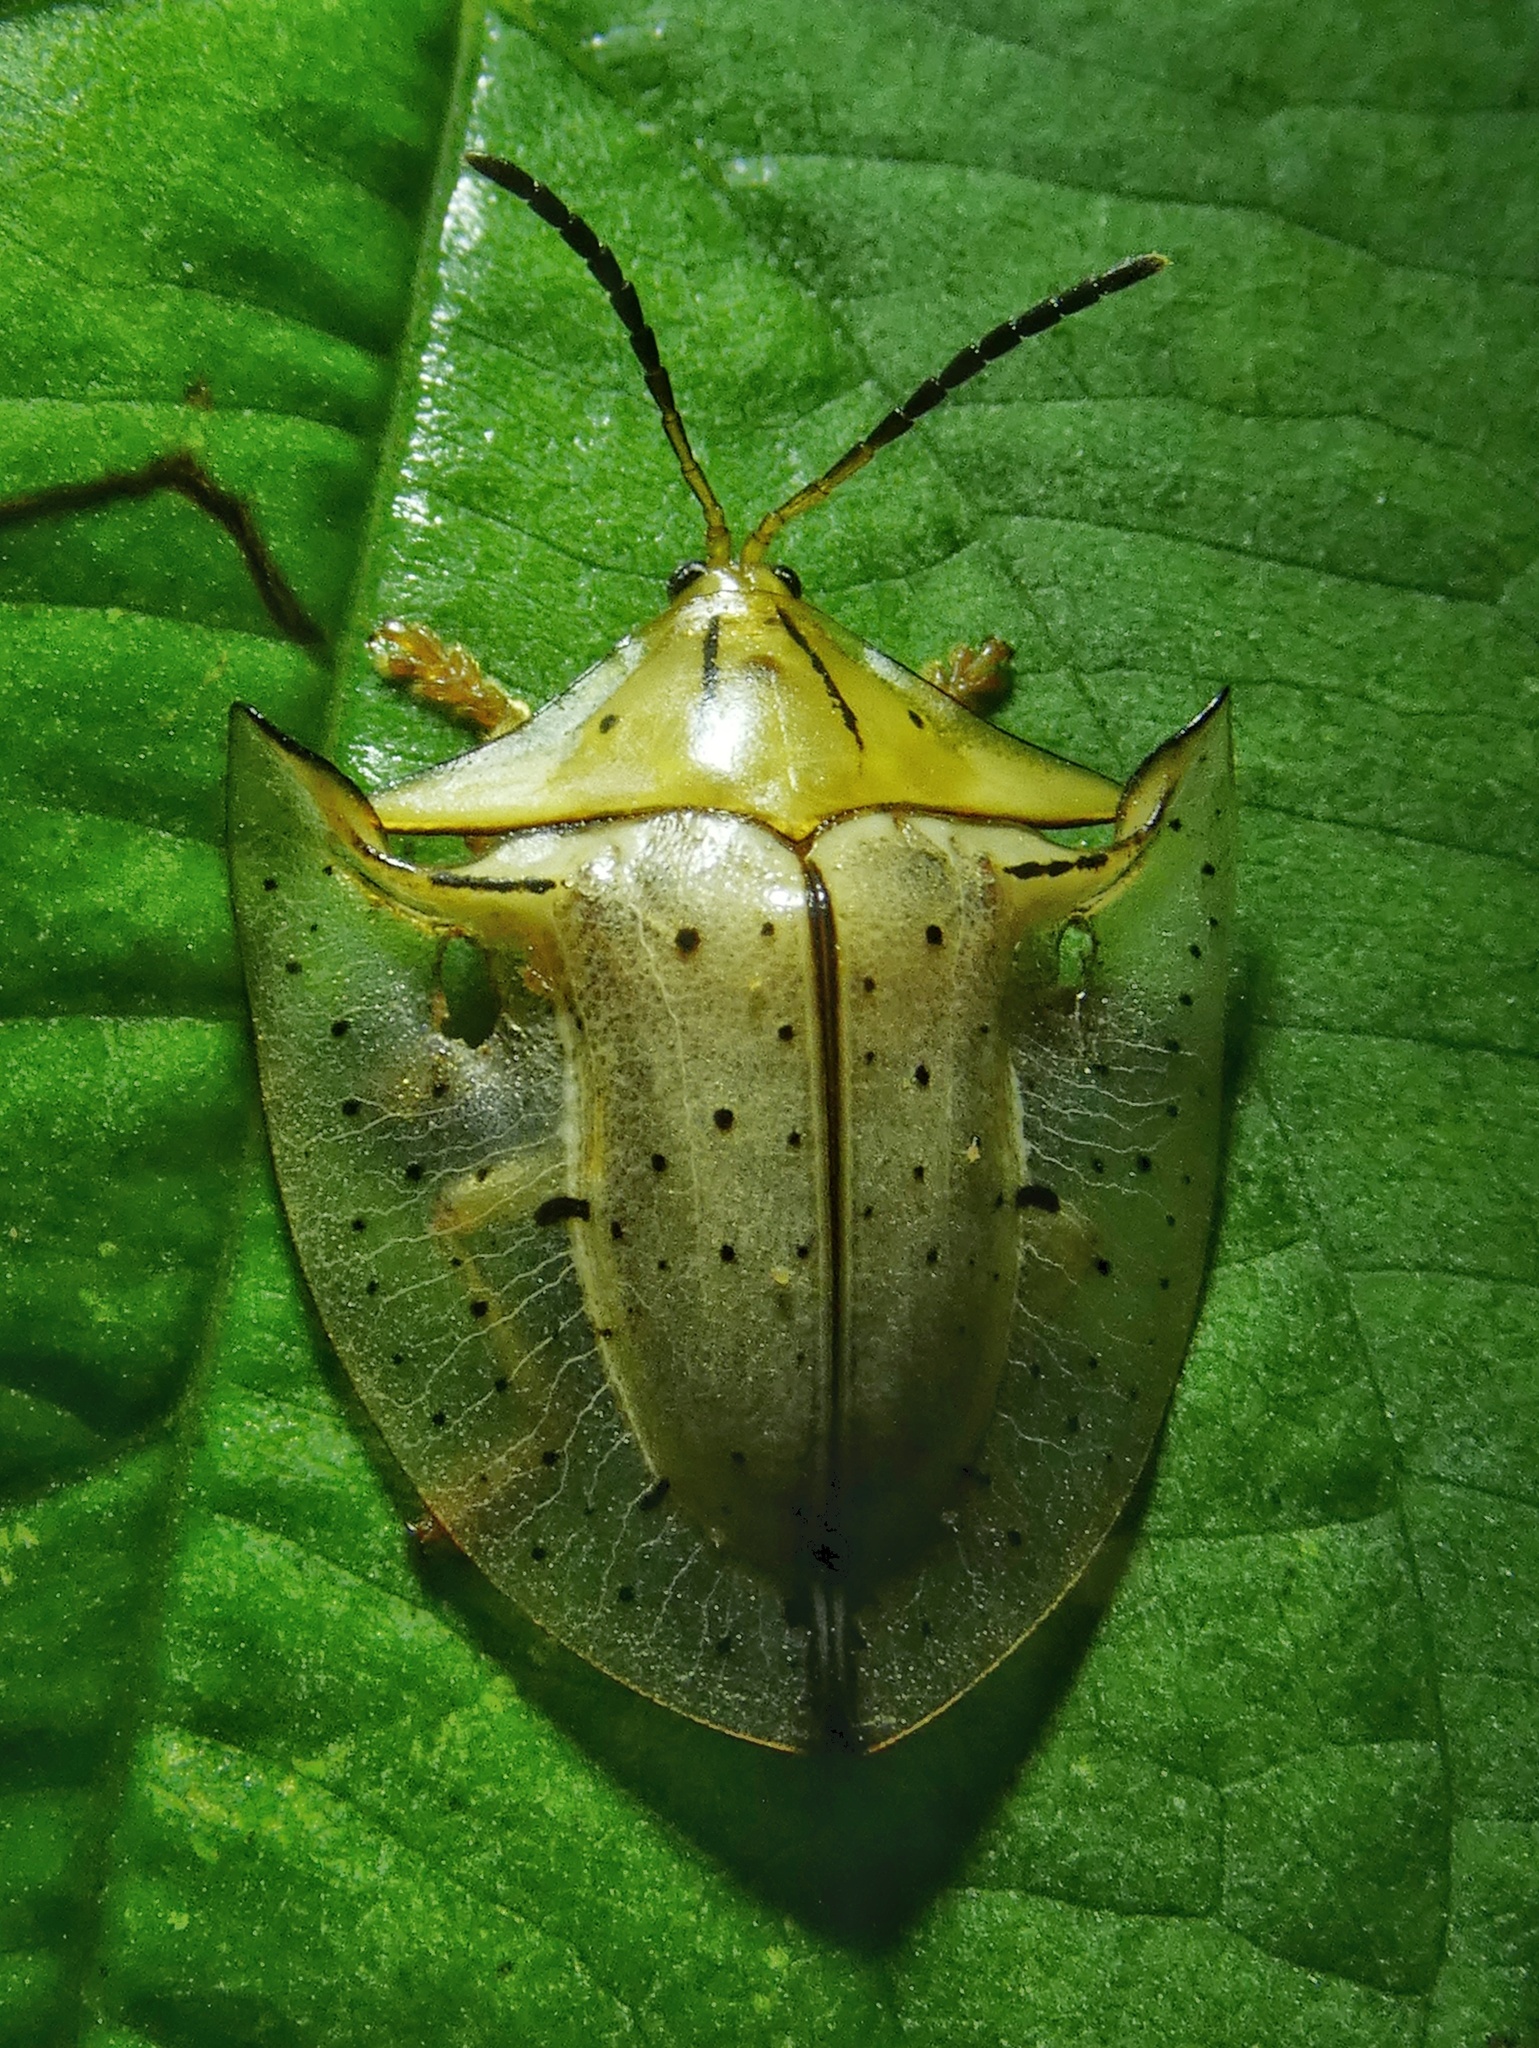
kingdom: Animalia
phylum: Arthropoda
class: Insecta
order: Coleoptera
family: Chrysomelidae
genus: Acromis
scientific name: Acromis sparsa
